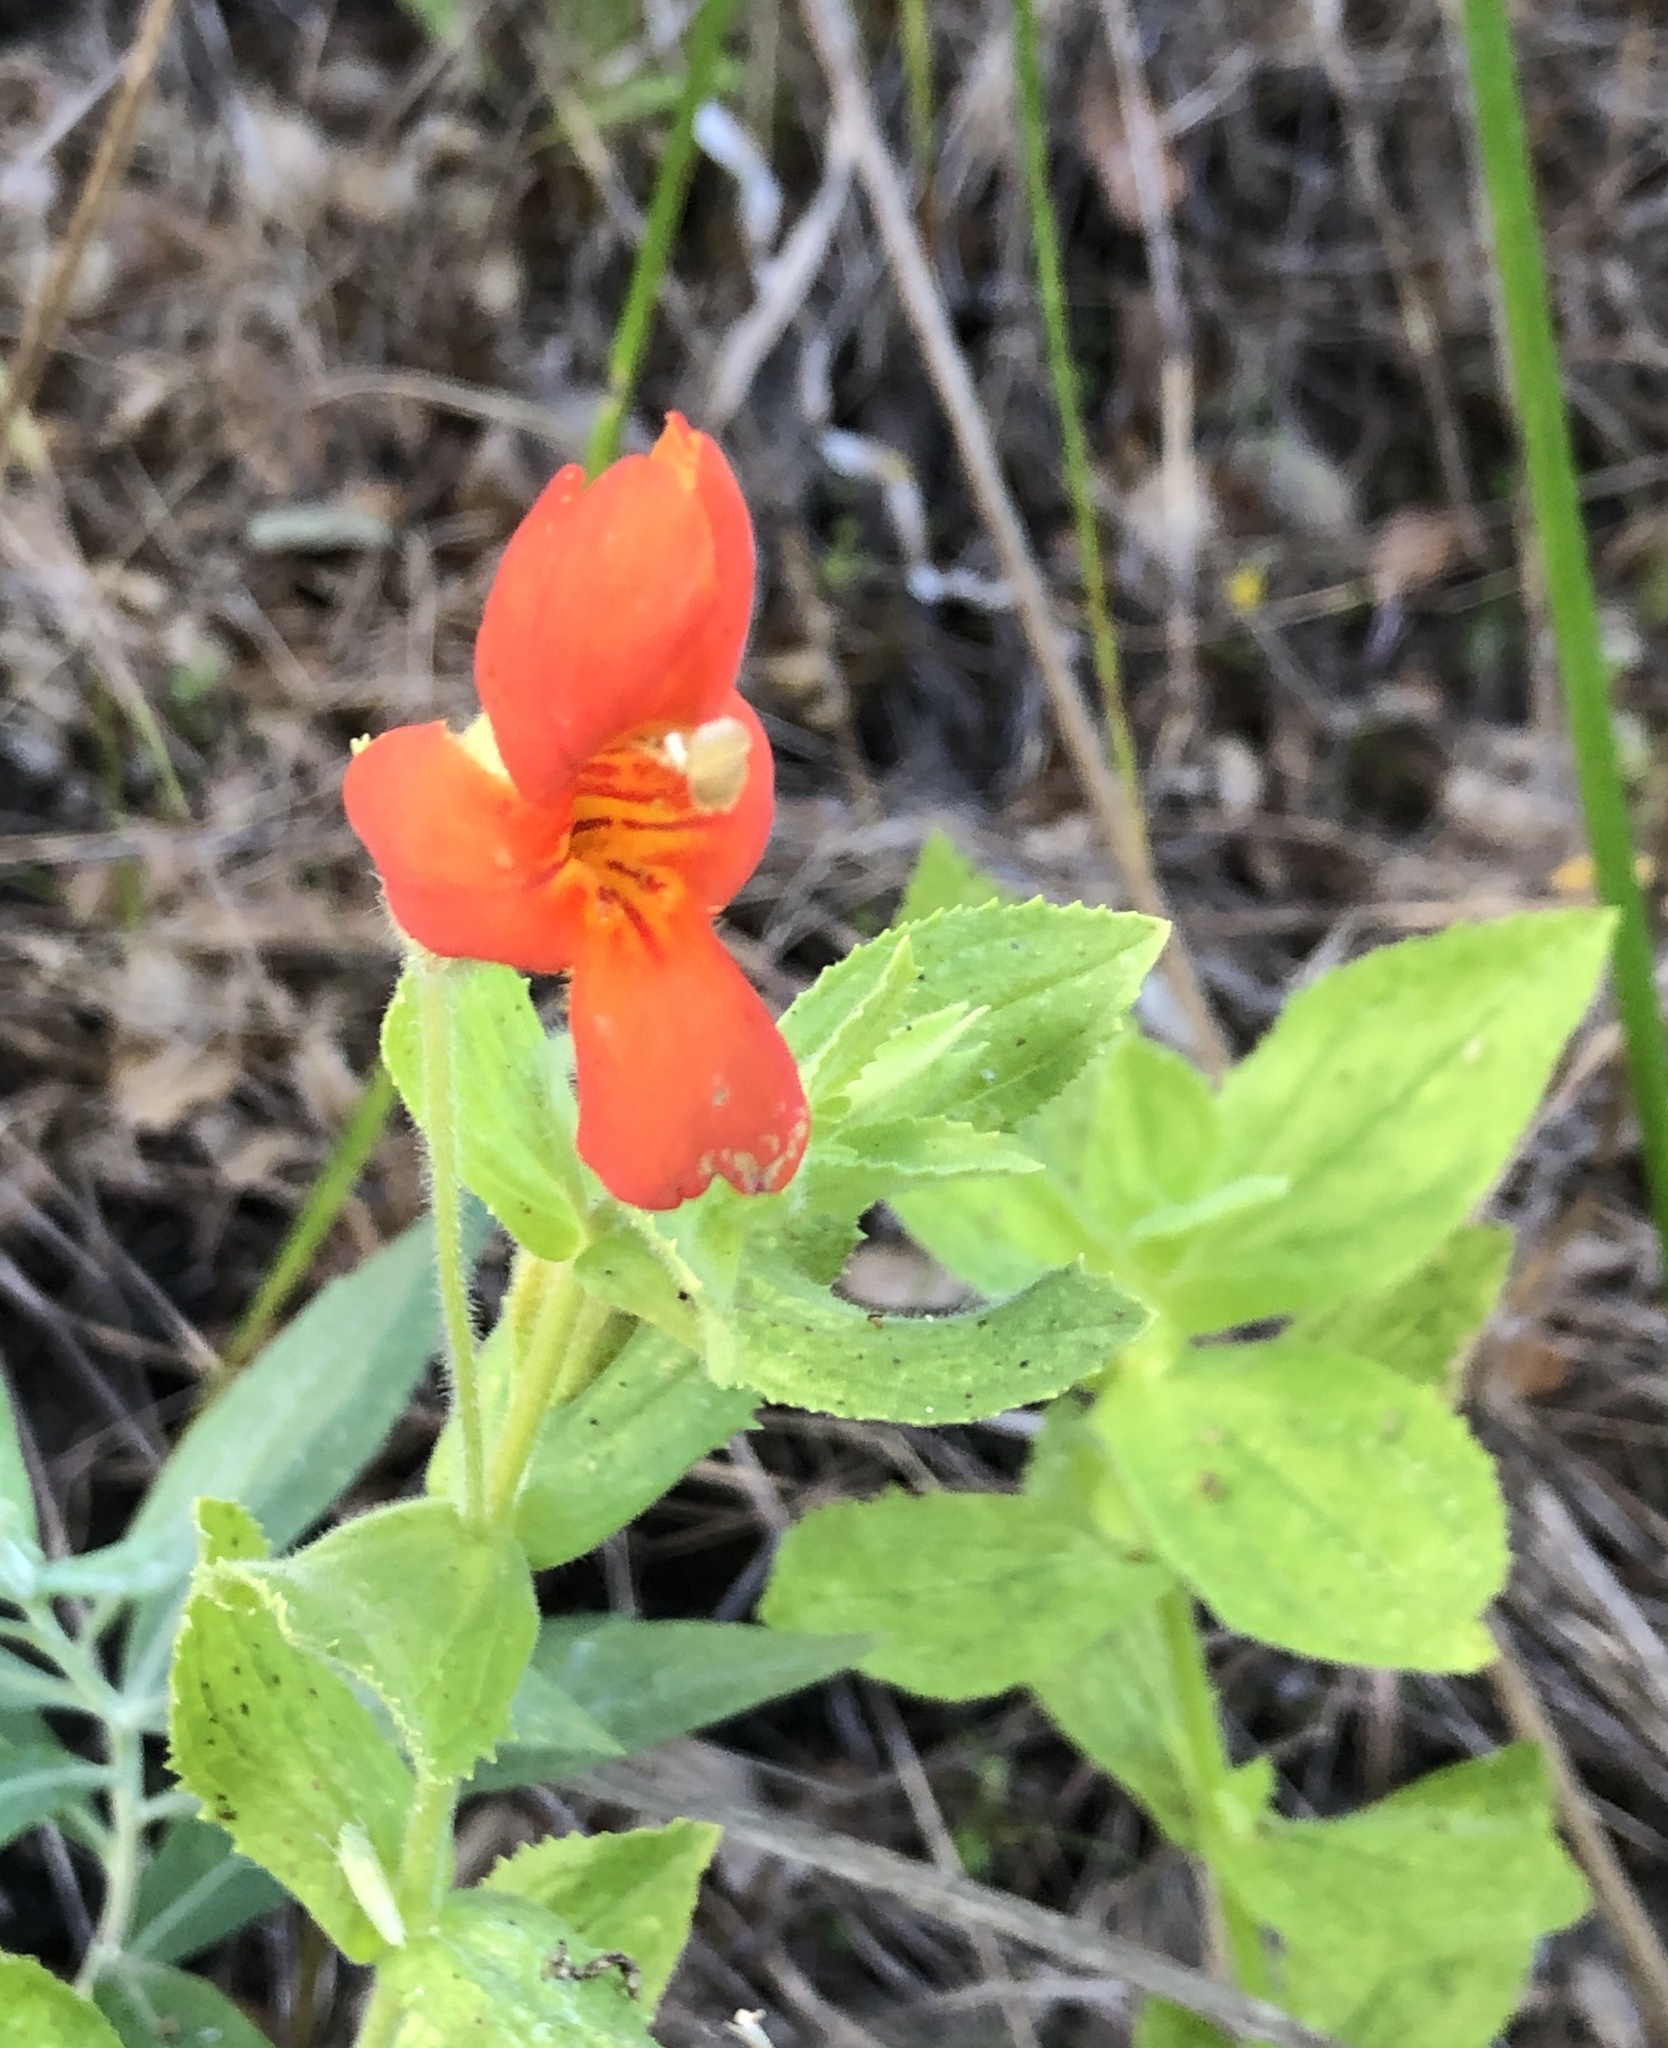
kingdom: Plantae
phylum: Tracheophyta
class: Magnoliopsida
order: Lamiales
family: Phrymaceae
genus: Erythranthe
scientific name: Erythranthe cardinalis
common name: Scarlet monkey-flower
